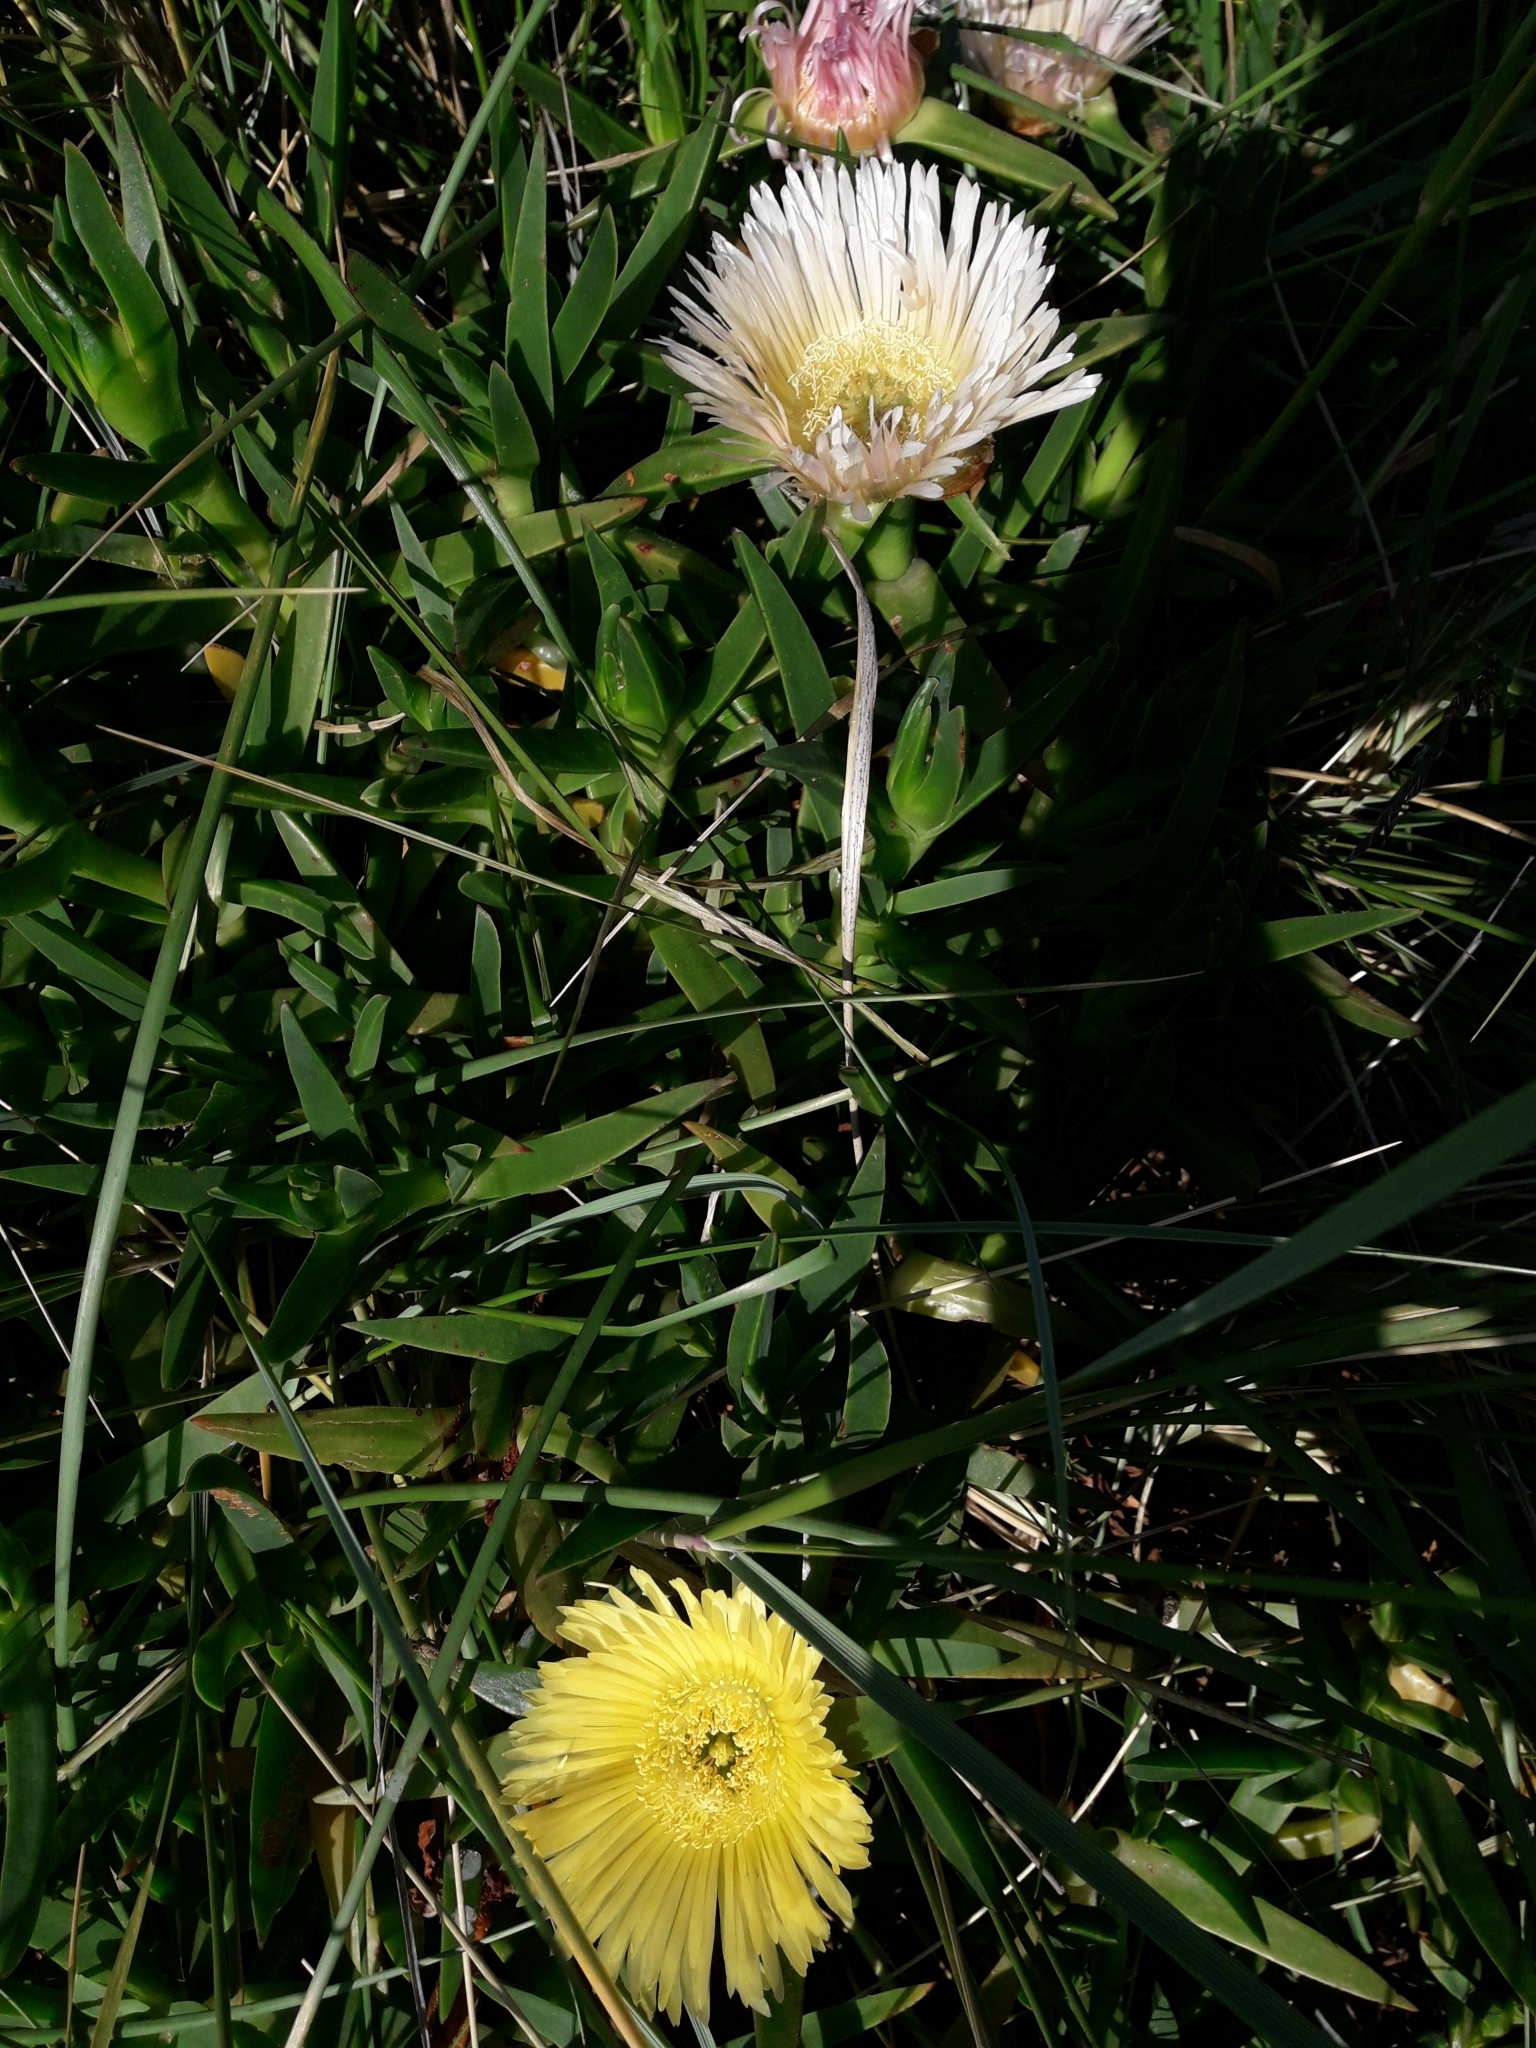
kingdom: Plantae
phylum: Tracheophyta
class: Magnoliopsida
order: Caryophyllales
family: Aizoaceae
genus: Carpobrotus
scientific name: Carpobrotus edulis
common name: Hottentot-fig
